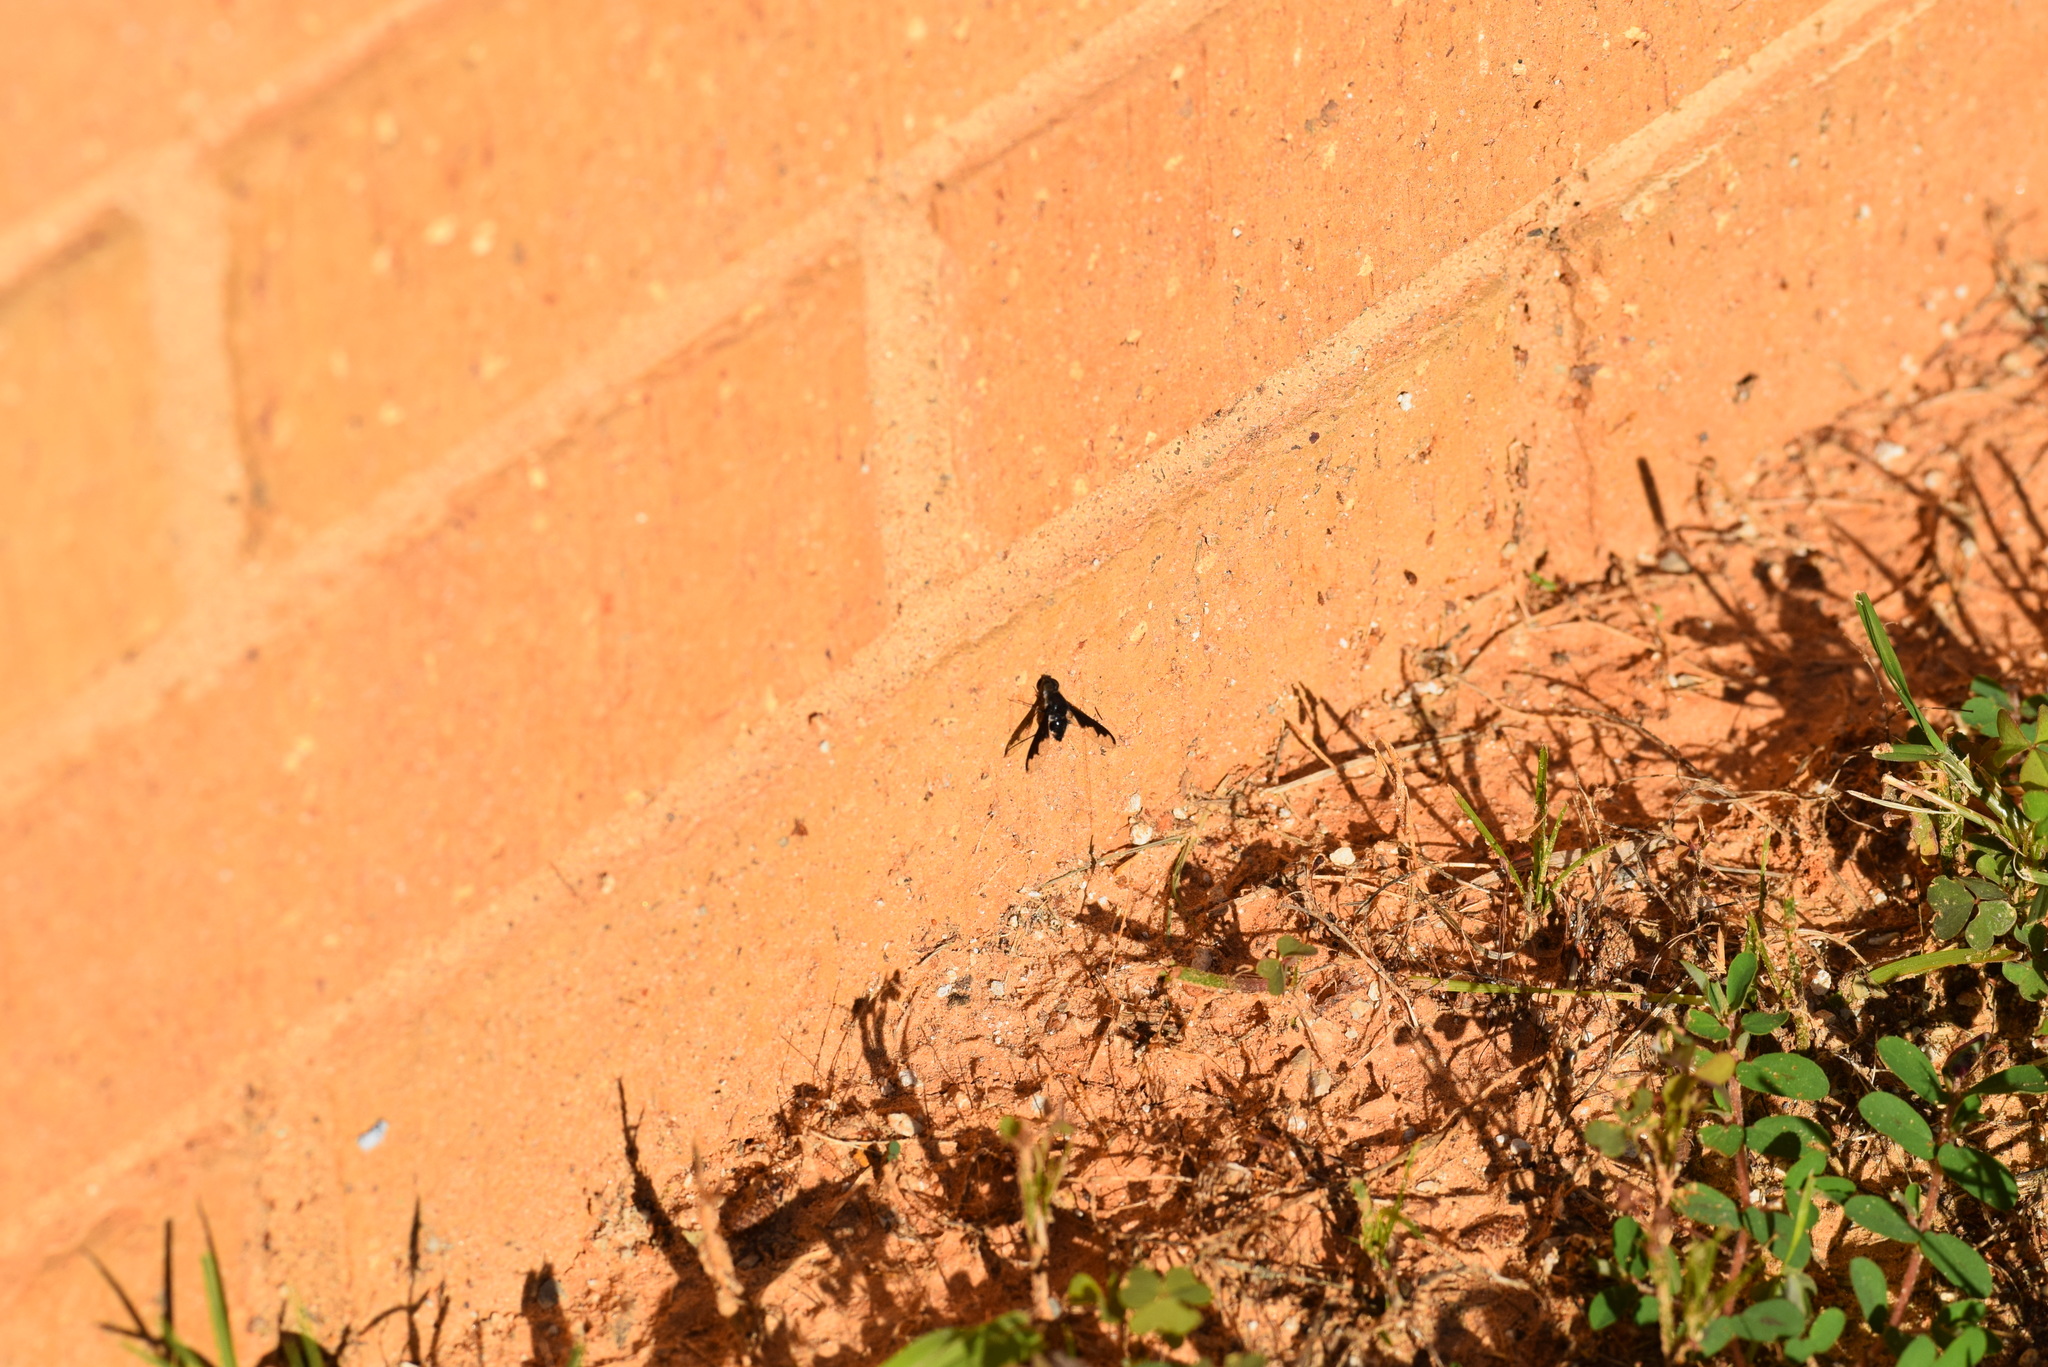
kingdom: Animalia
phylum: Arthropoda
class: Insecta
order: Diptera
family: Bombyliidae
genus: Anthrax
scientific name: Anthrax argyropygus
